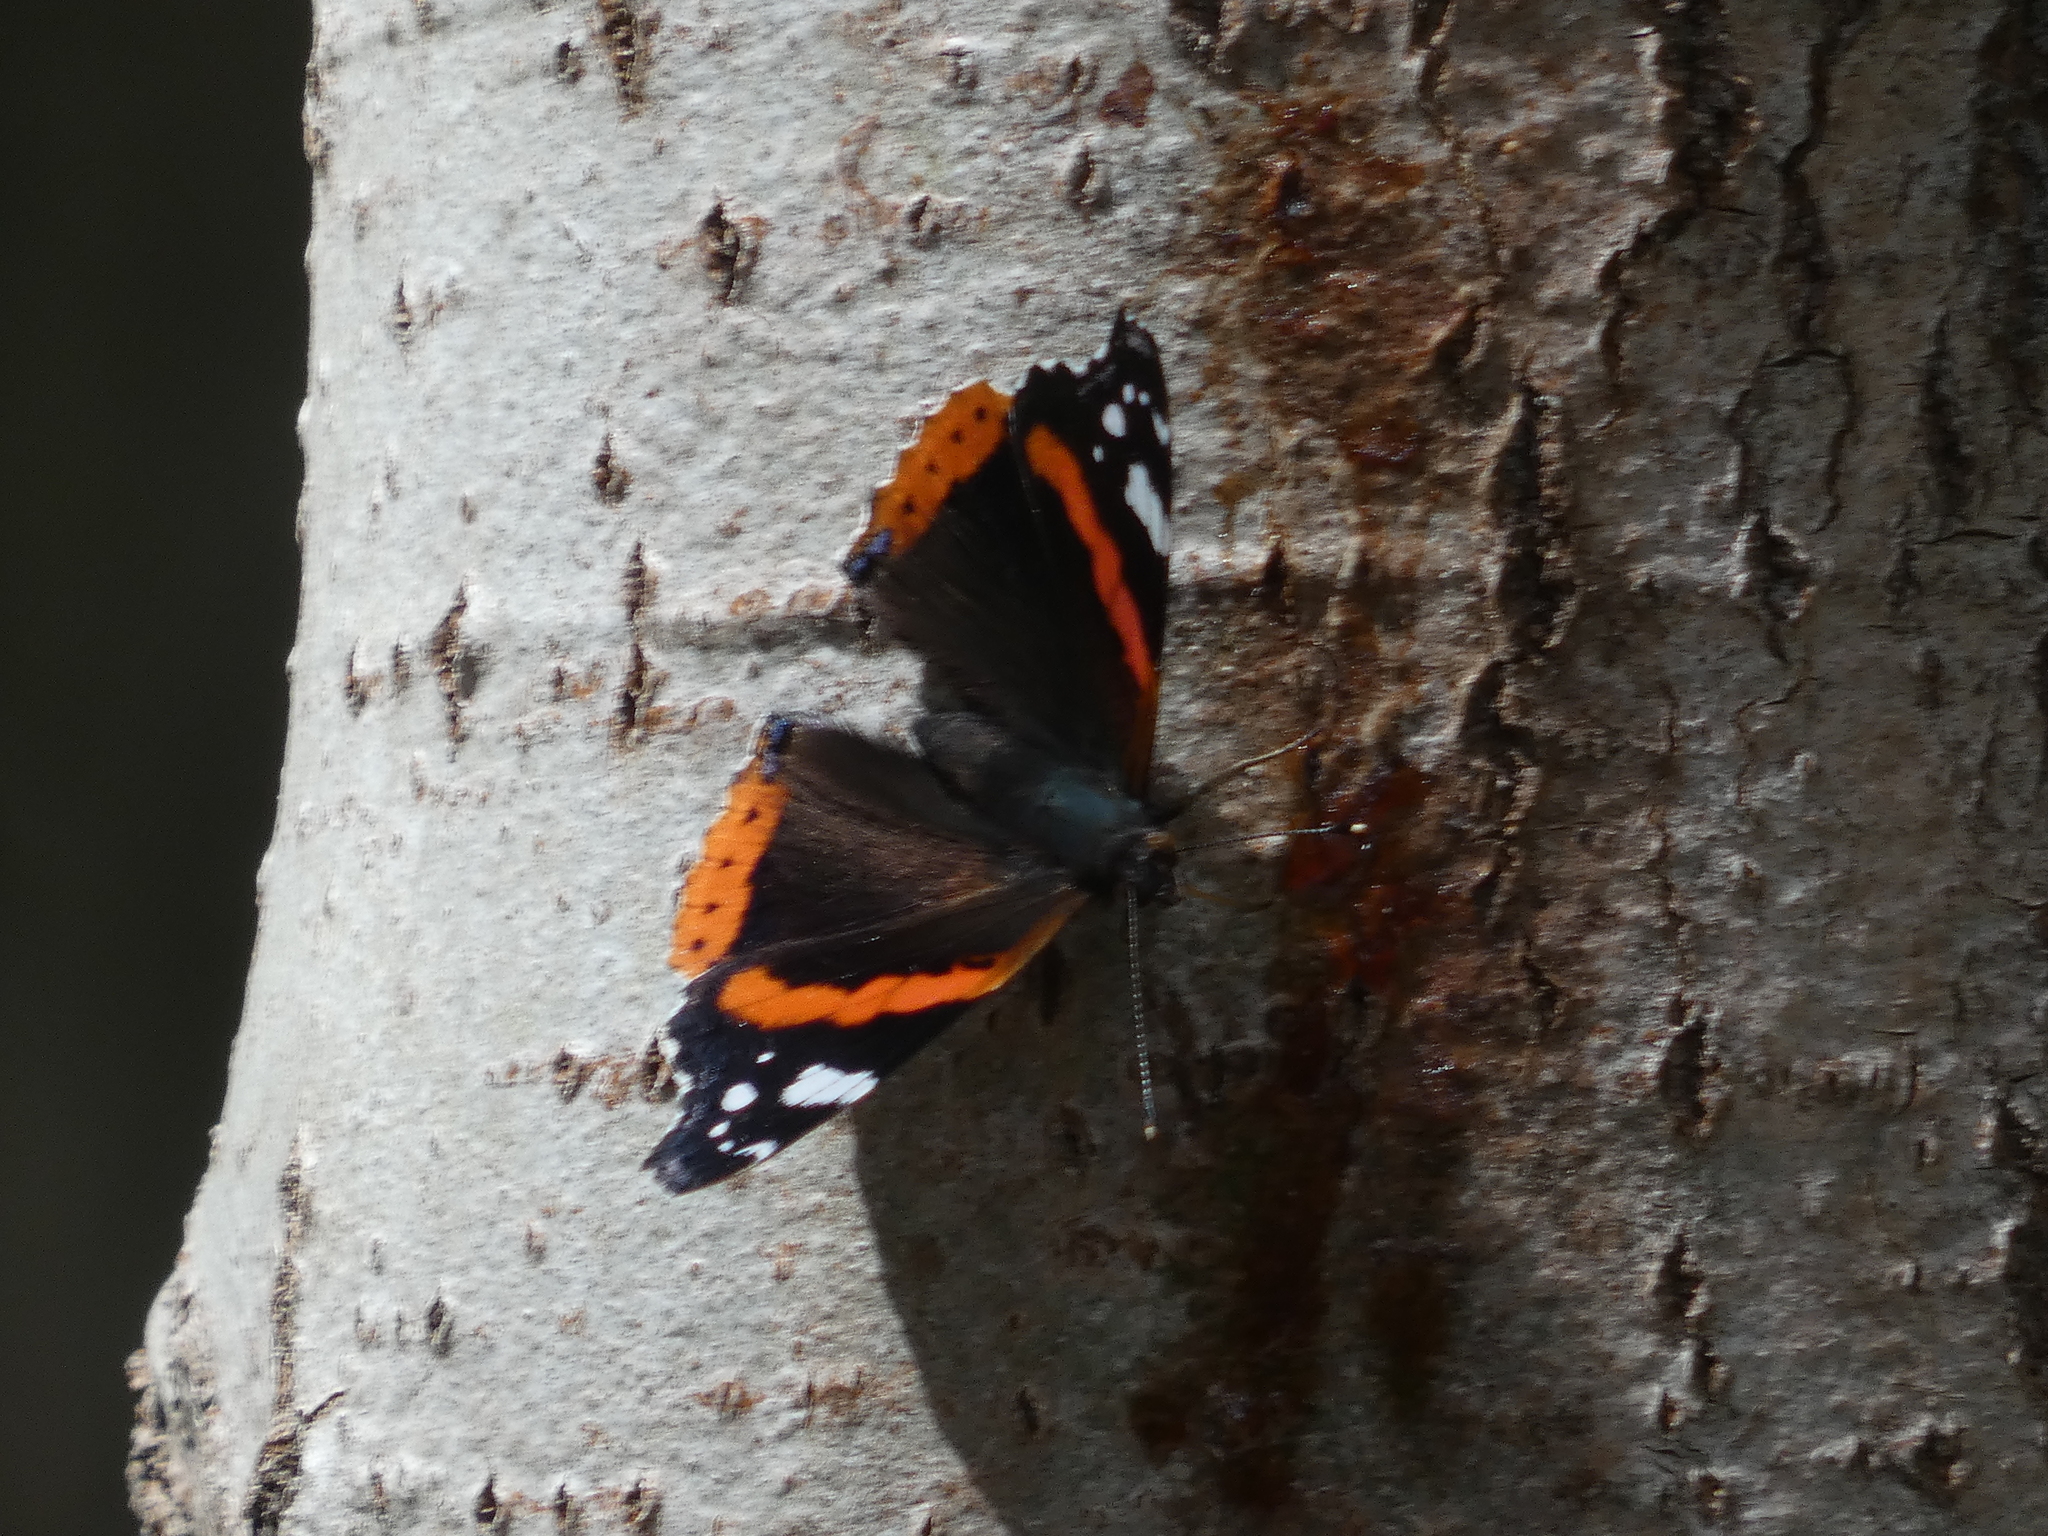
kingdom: Animalia
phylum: Arthropoda
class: Insecta
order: Lepidoptera
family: Nymphalidae
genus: Vanessa
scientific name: Vanessa atalanta
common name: Red admiral
